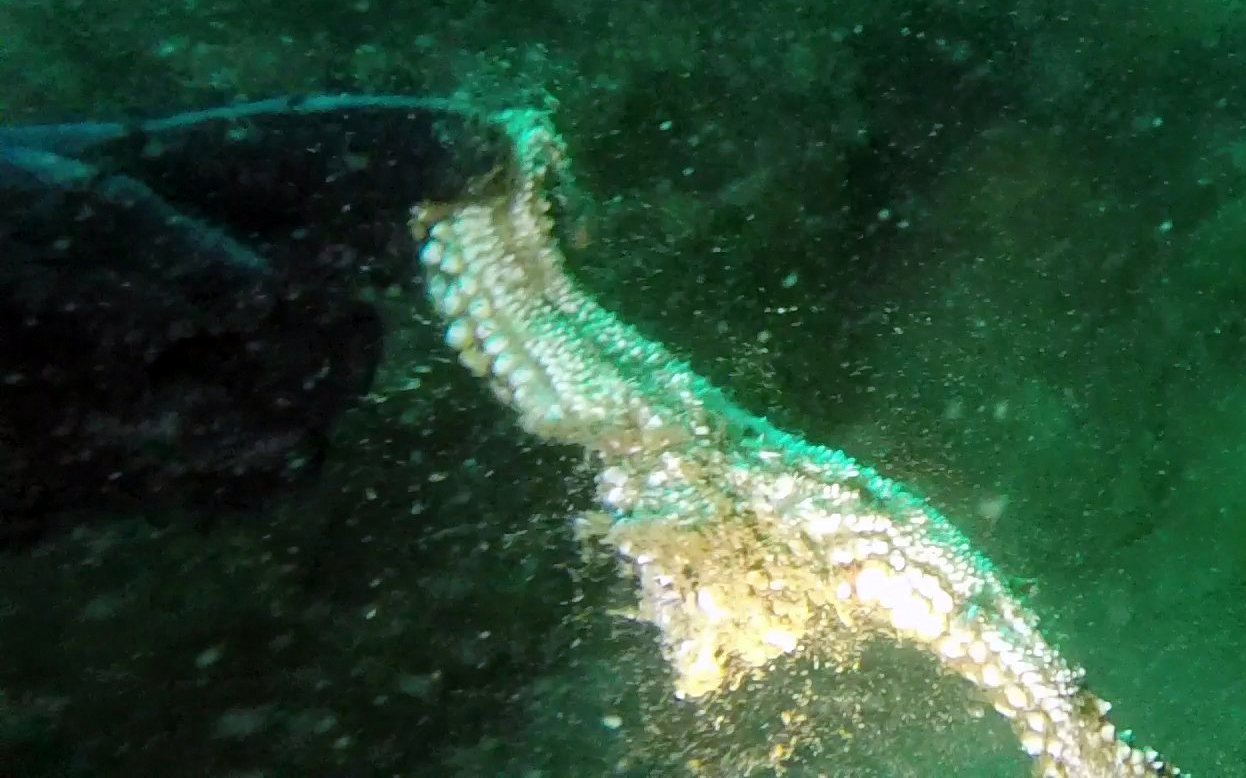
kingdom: Animalia
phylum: Echinodermata
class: Asteroidea
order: Forcipulatida
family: Asteriidae
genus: Pisaster
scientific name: Pisaster giganteus
